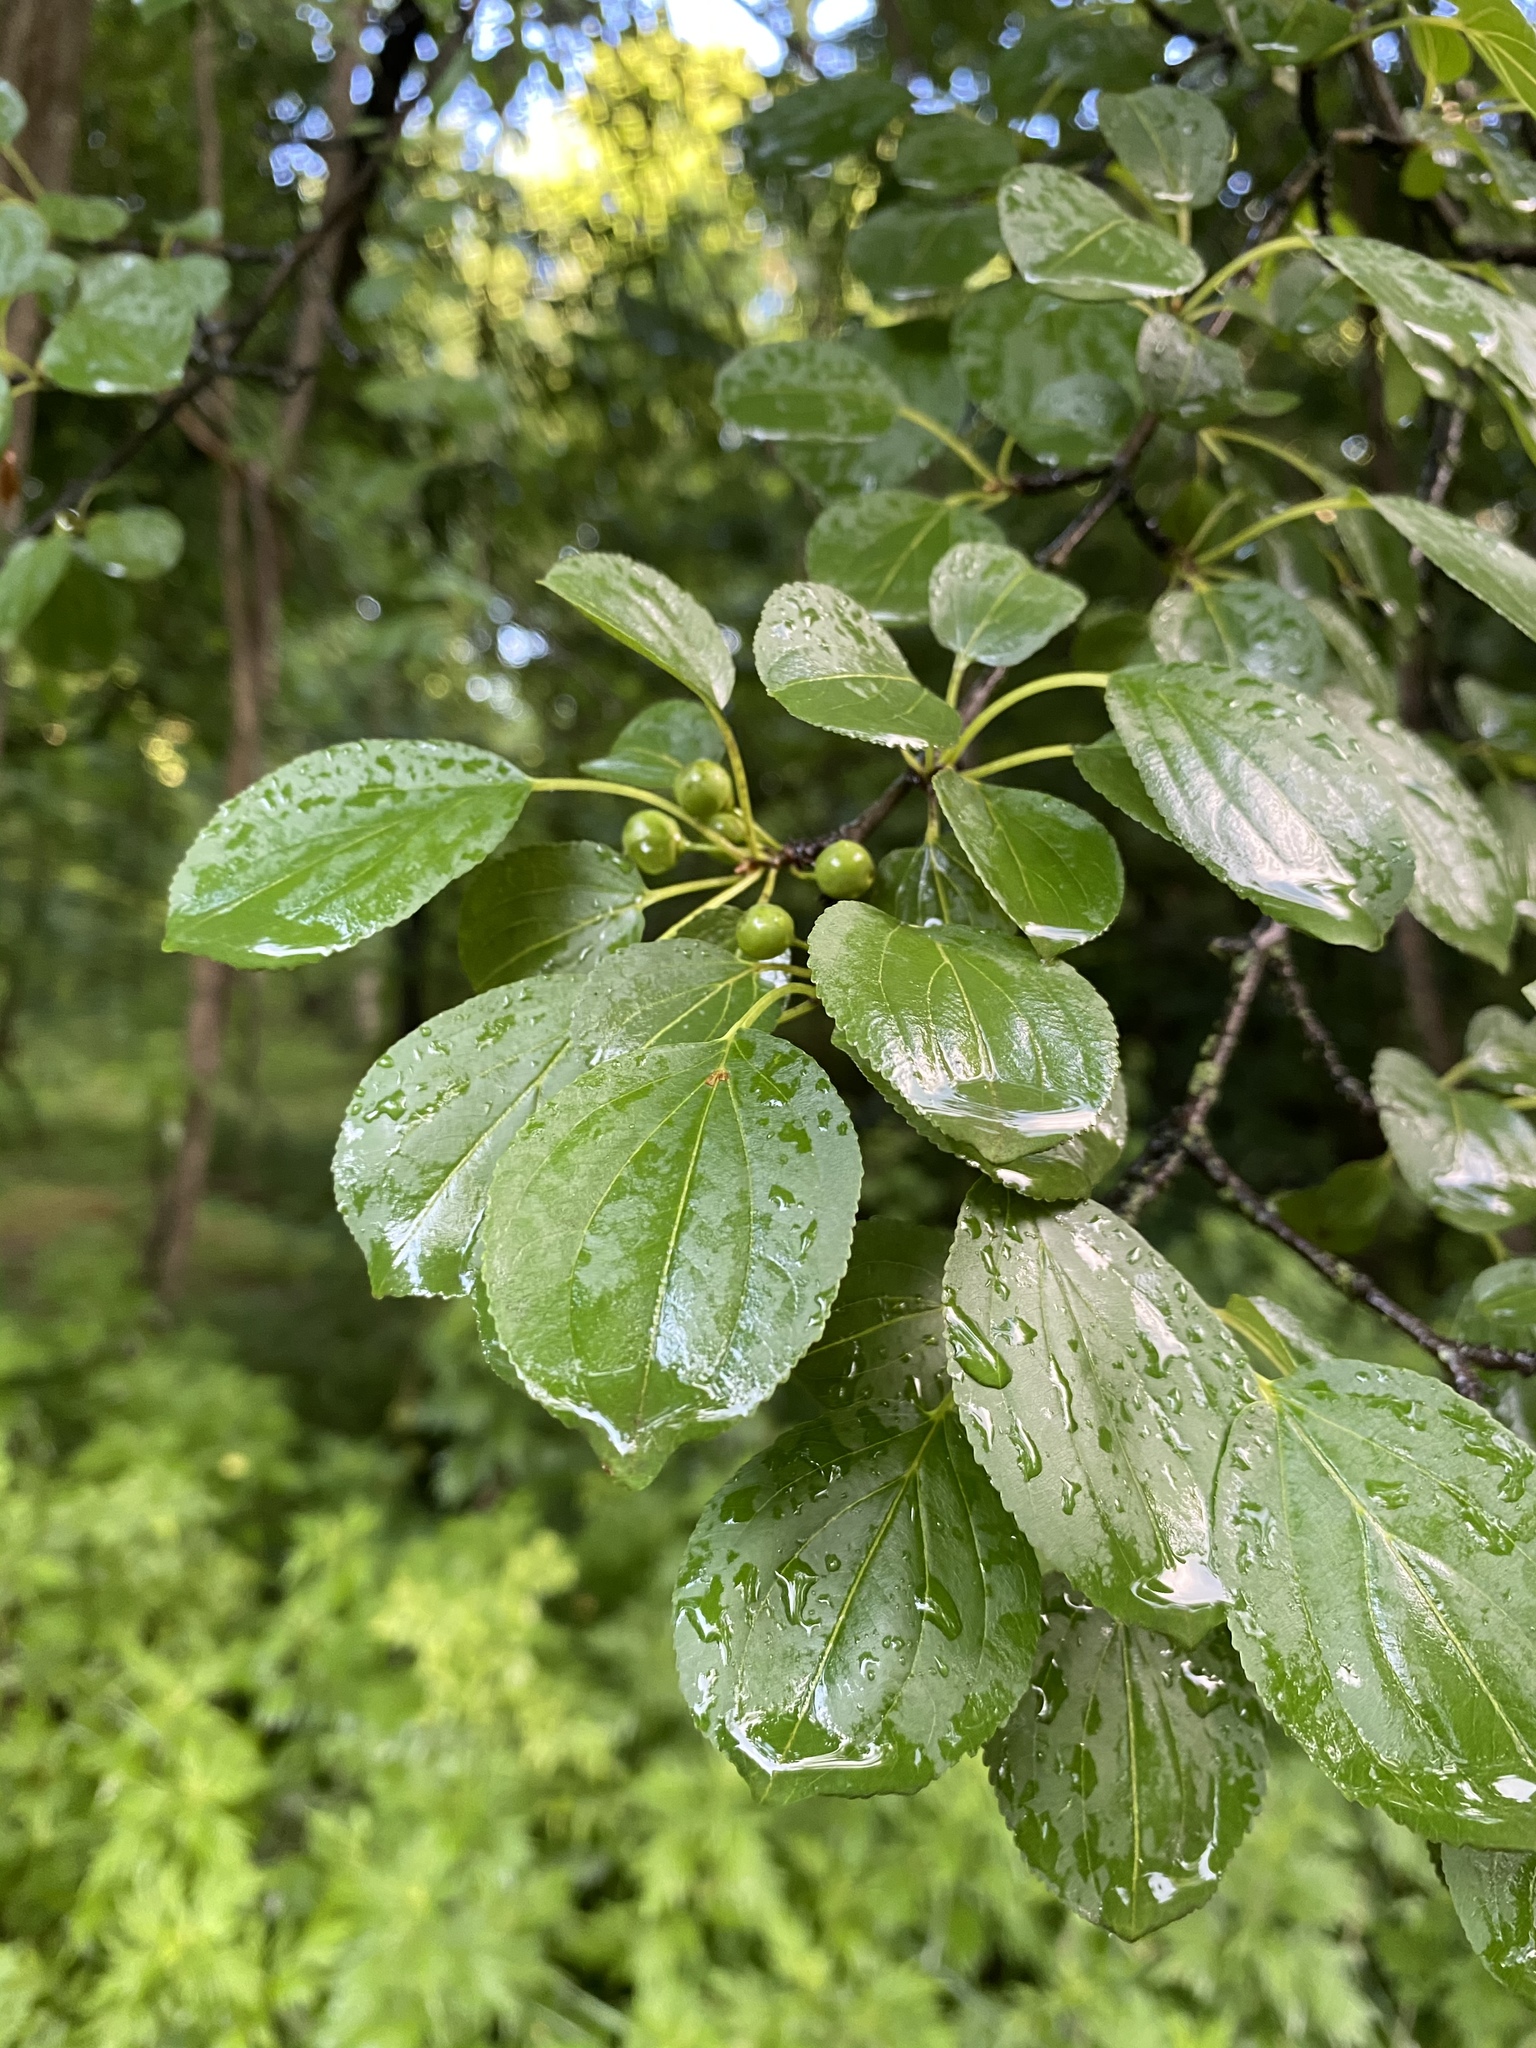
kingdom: Plantae
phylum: Tracheophyta
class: Magnoliopsida
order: Rosales
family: Rhamnaceae
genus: Rhamnus
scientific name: Rhamnus cathartica
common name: Common buckthorn
